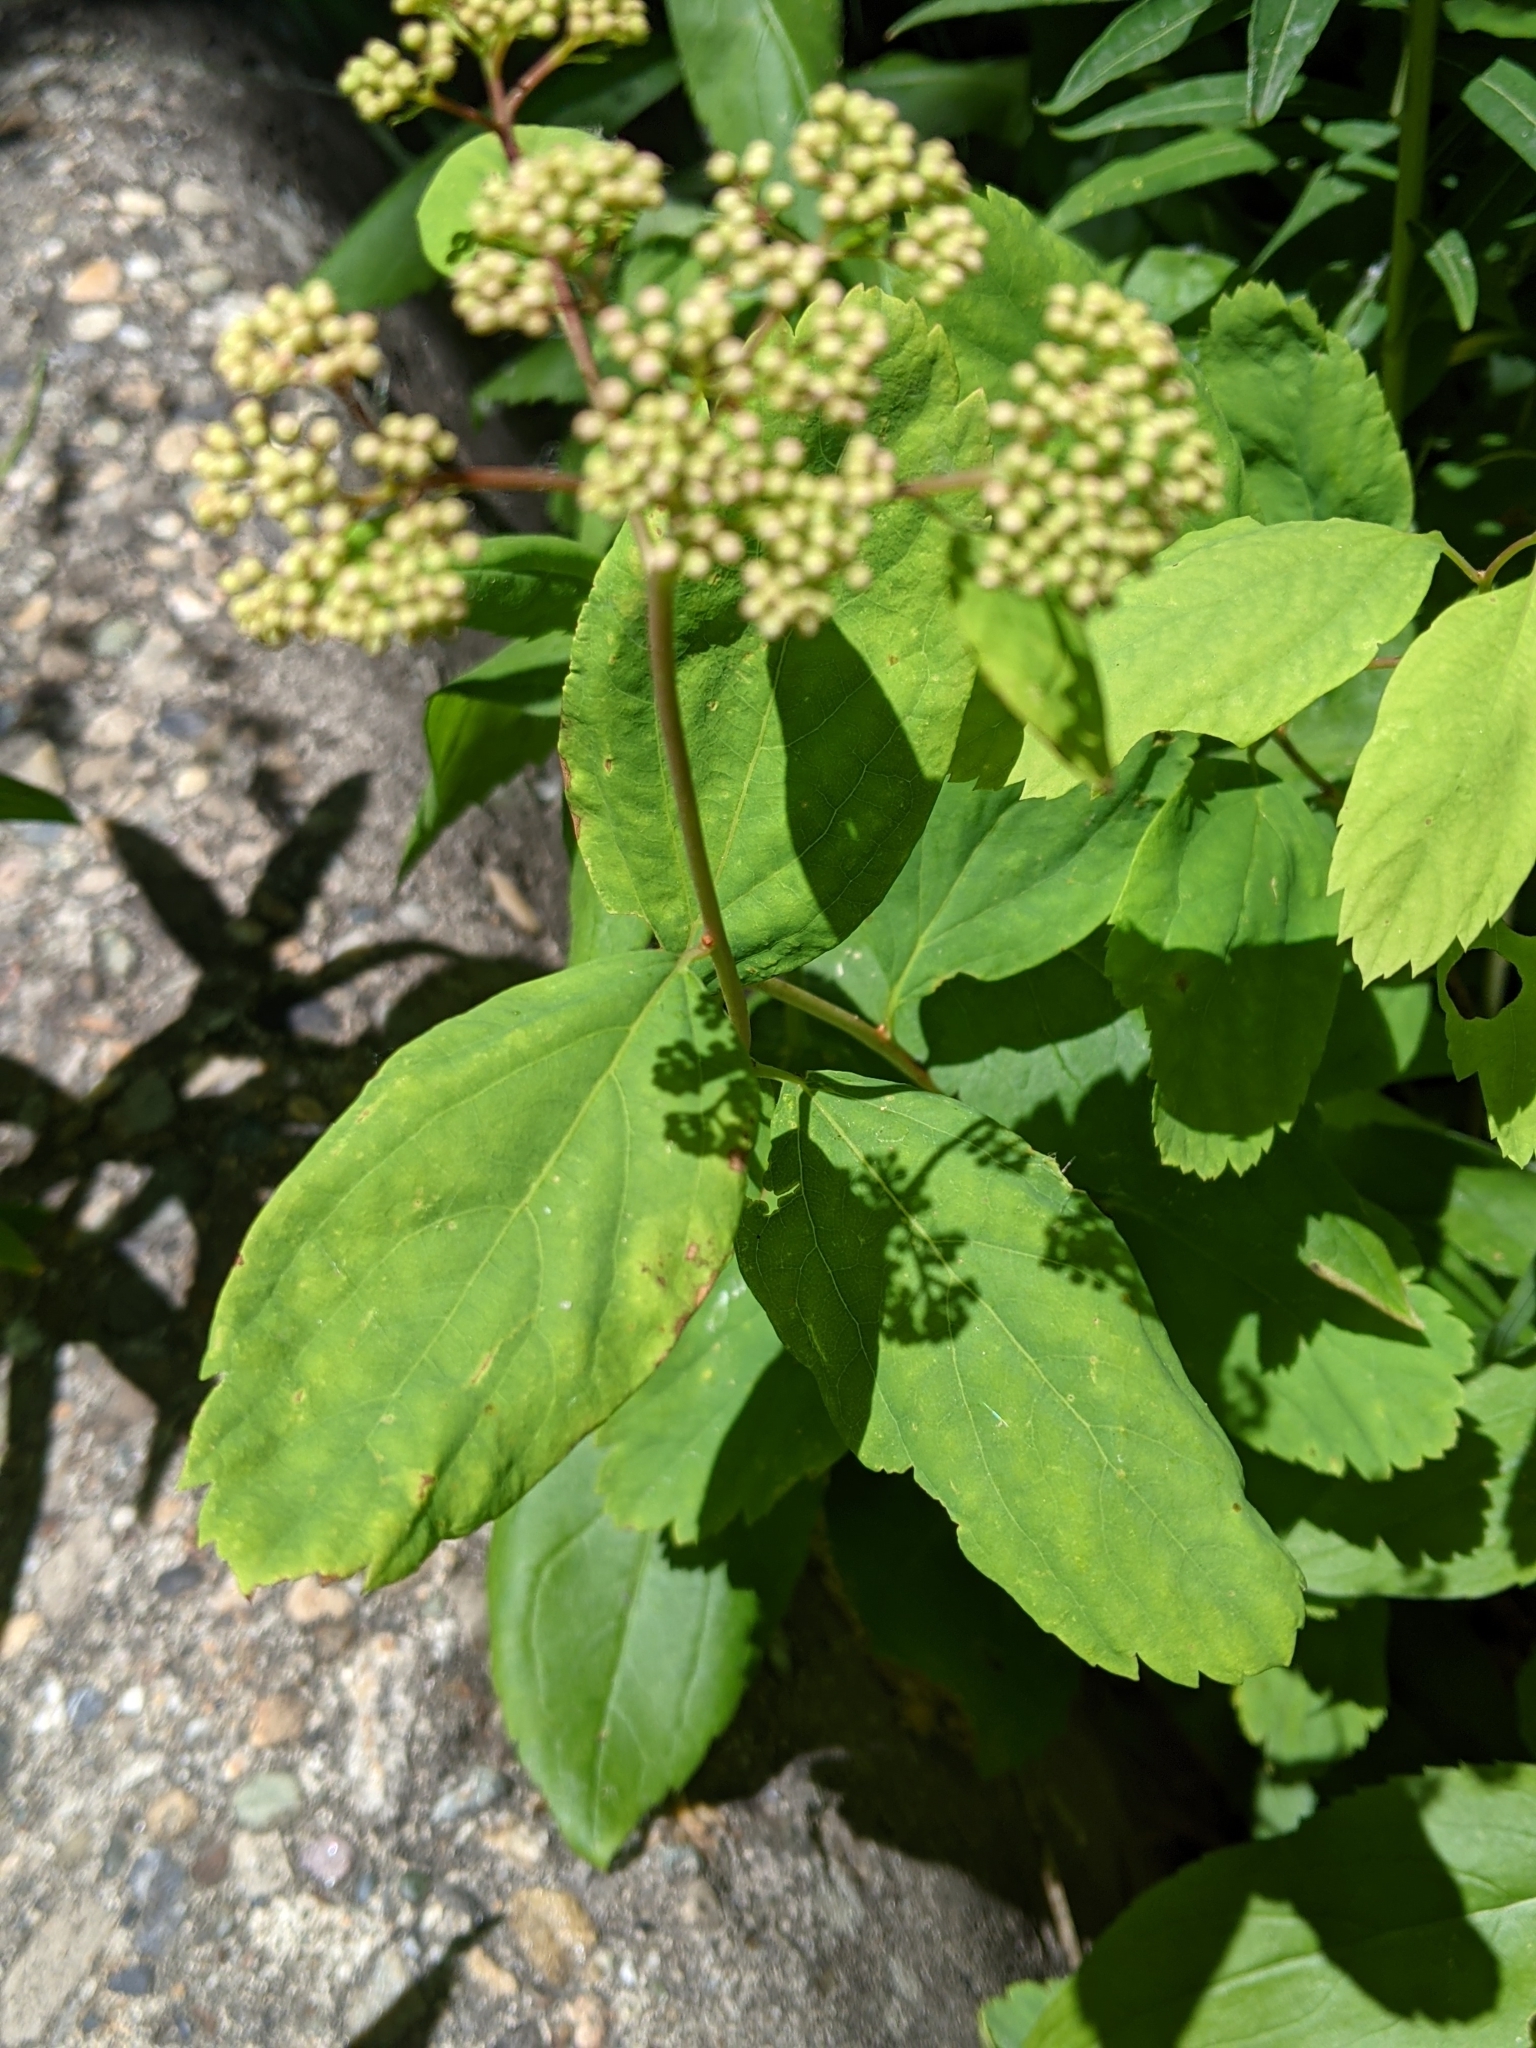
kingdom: Plantae
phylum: Tracheophyta
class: Magnoliopsida
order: Rosales
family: Rosaceae
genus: Spiraea
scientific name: Spiraea lucida
